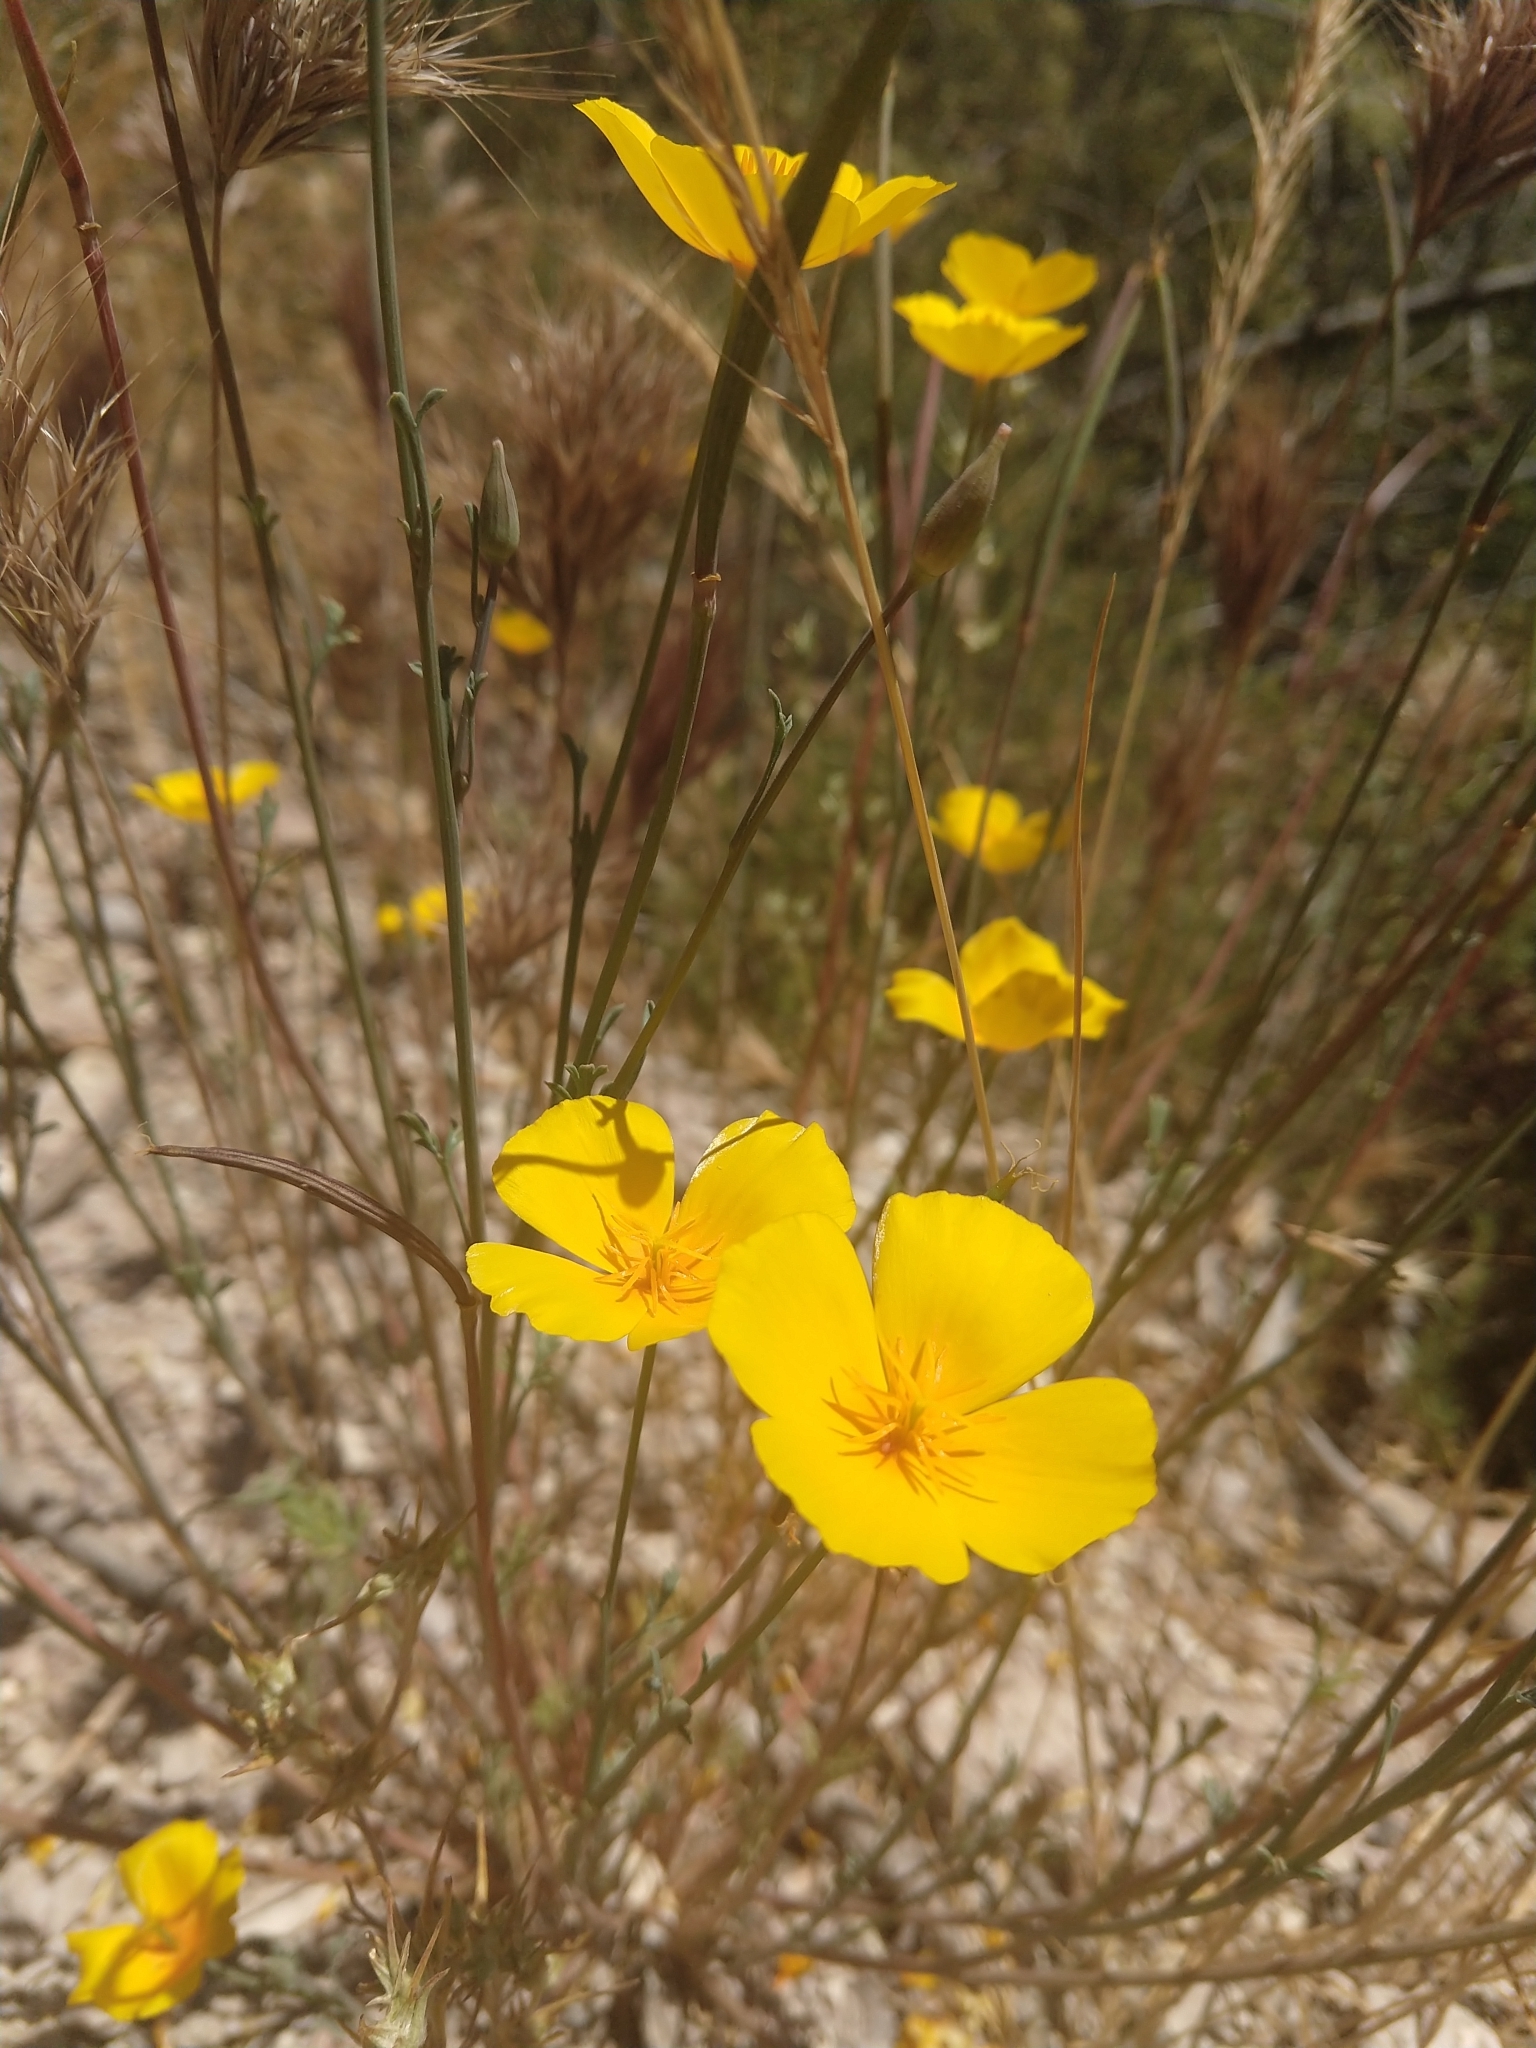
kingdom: Plantae
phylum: Tracheophyta
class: Magnoliopsida
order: Ranunculales
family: Papaveraceae
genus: Eschscholzia
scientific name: Eschscholzia caespitosa
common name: Tufted california-poppy
